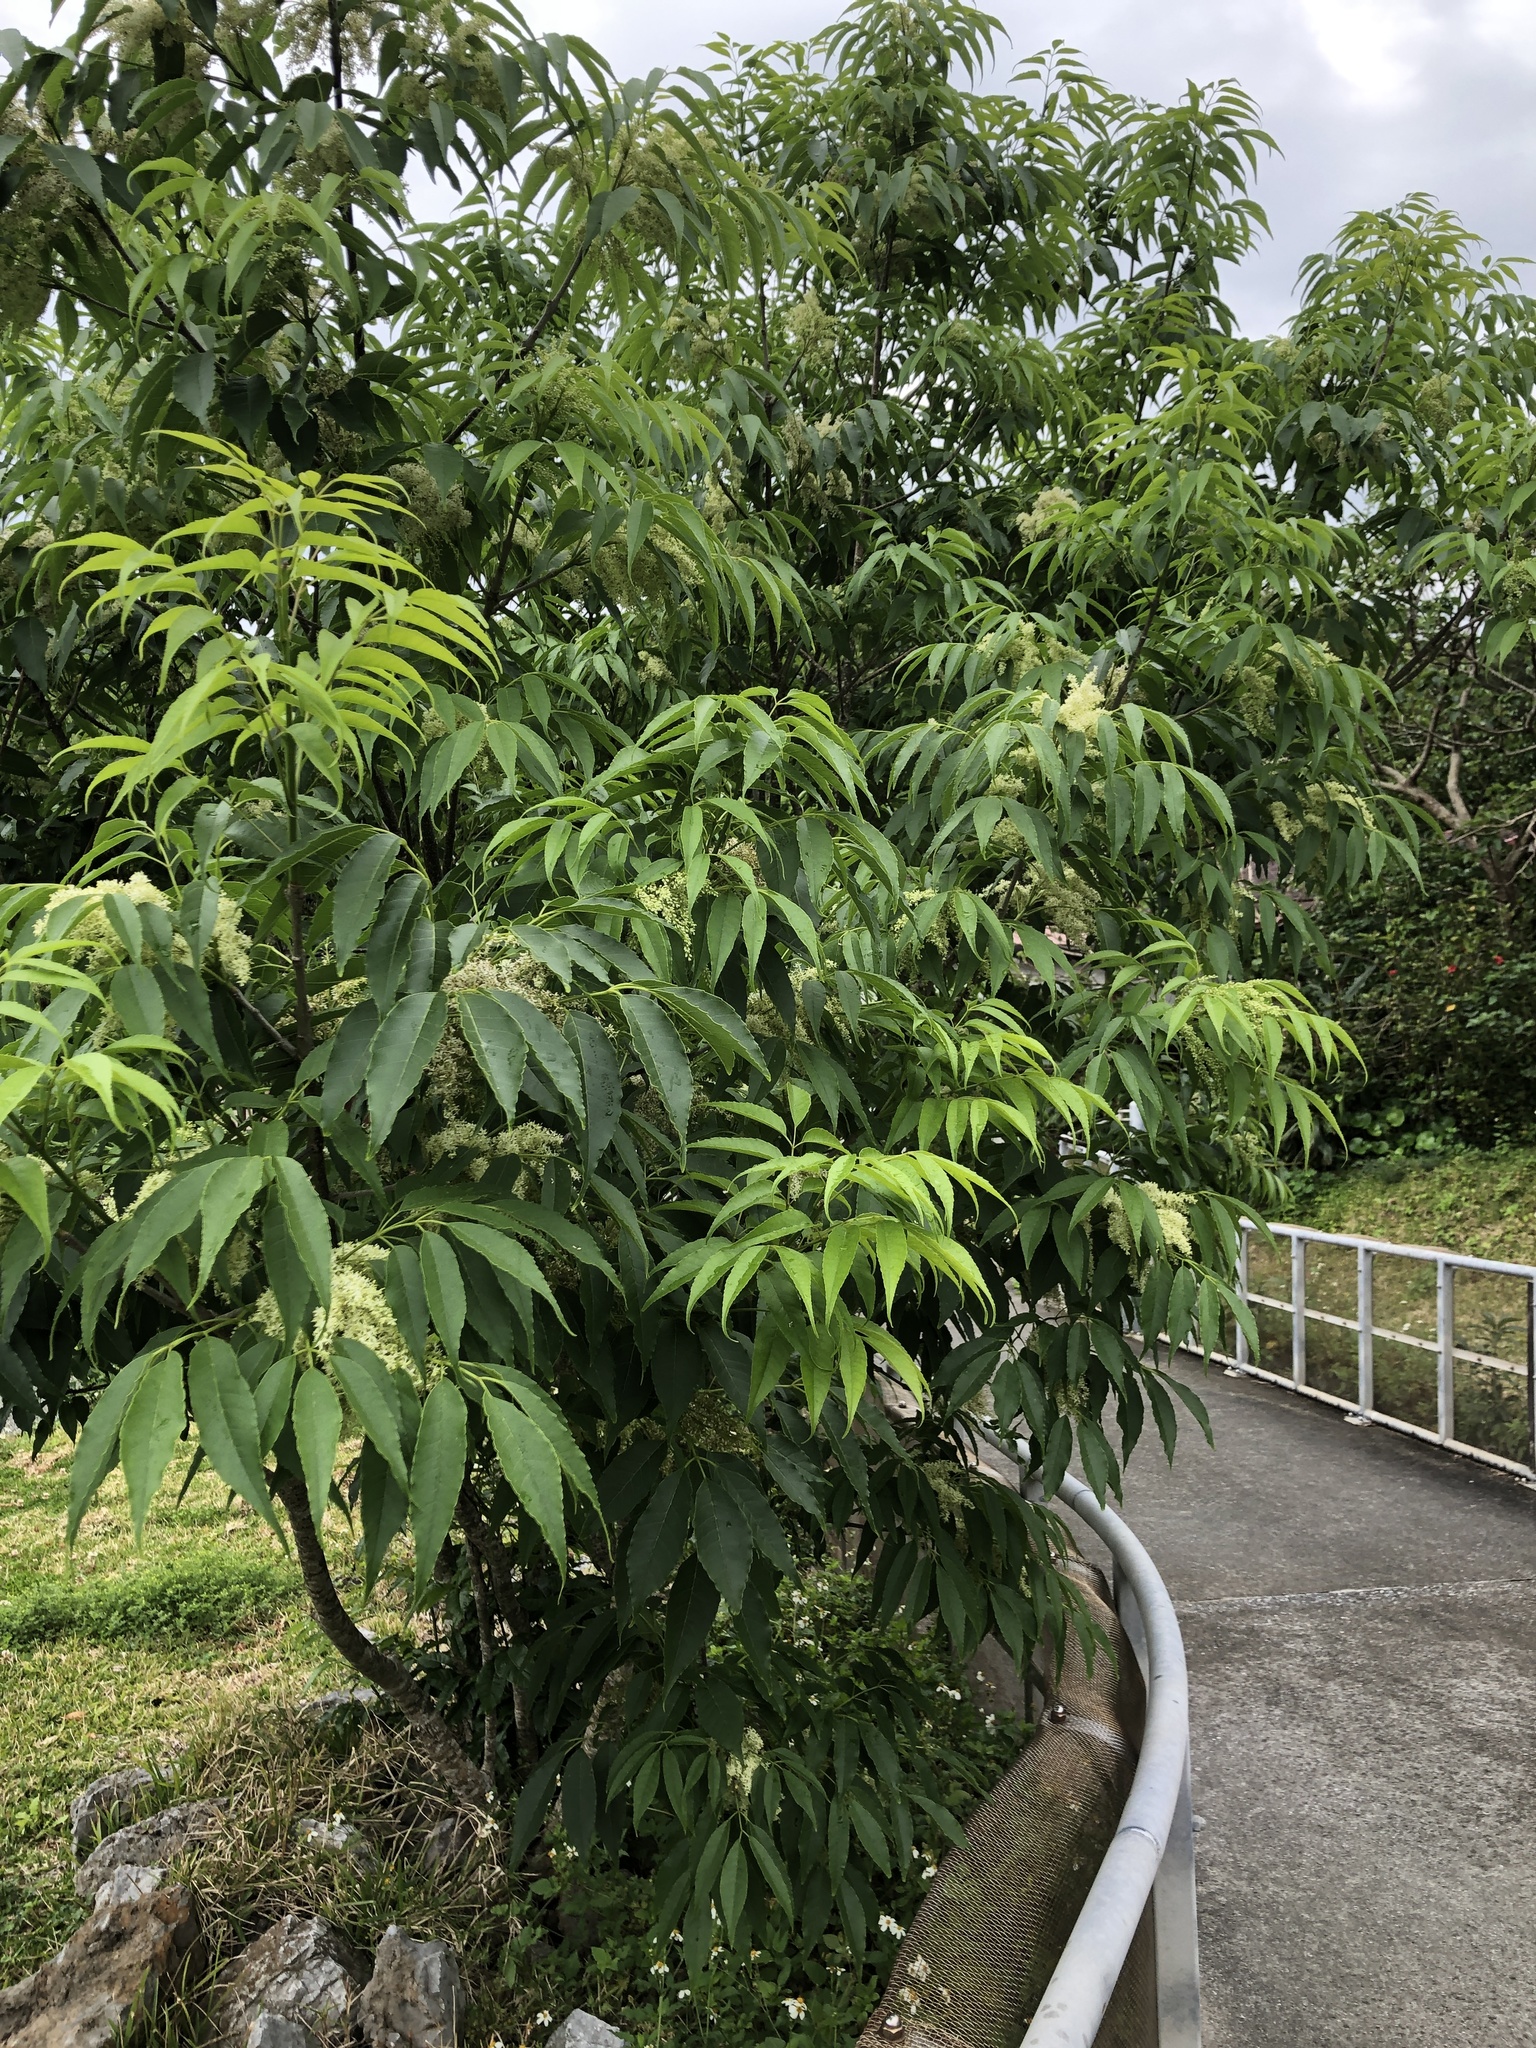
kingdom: Plantae
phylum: Tracheophyta
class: Magnoliopsida
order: Lamiales
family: Oleaceae
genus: Fraxinus
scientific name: Fraxinus insularis
